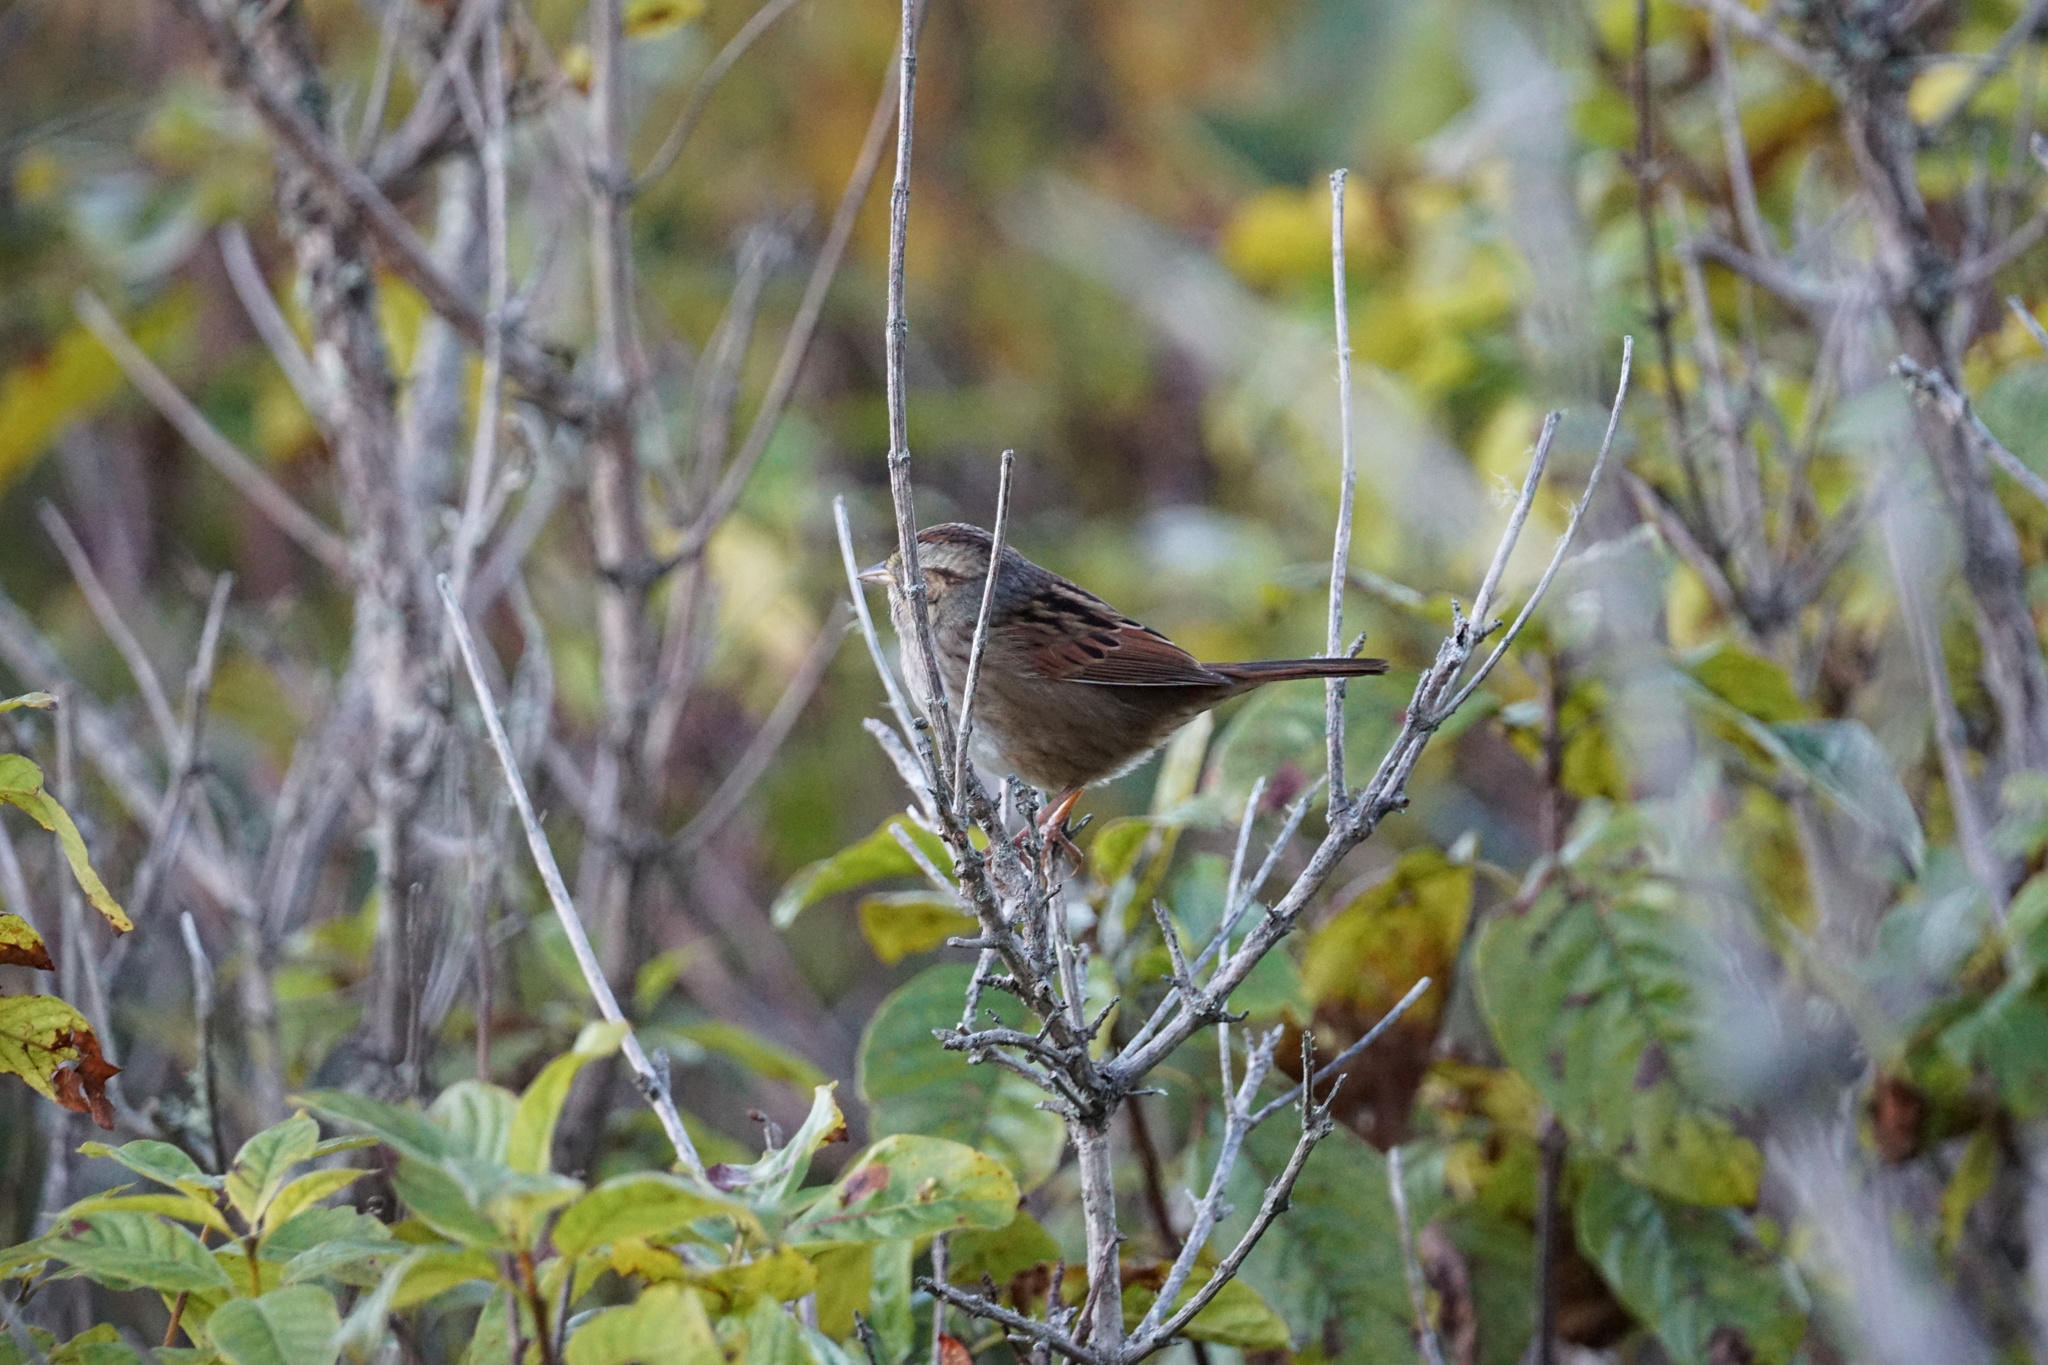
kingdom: Animalia
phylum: Chordata
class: Aves
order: Passeriformes
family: Passerellidae
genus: Melospiza
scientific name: Melospiza georgiana
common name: Swamp sparrow
